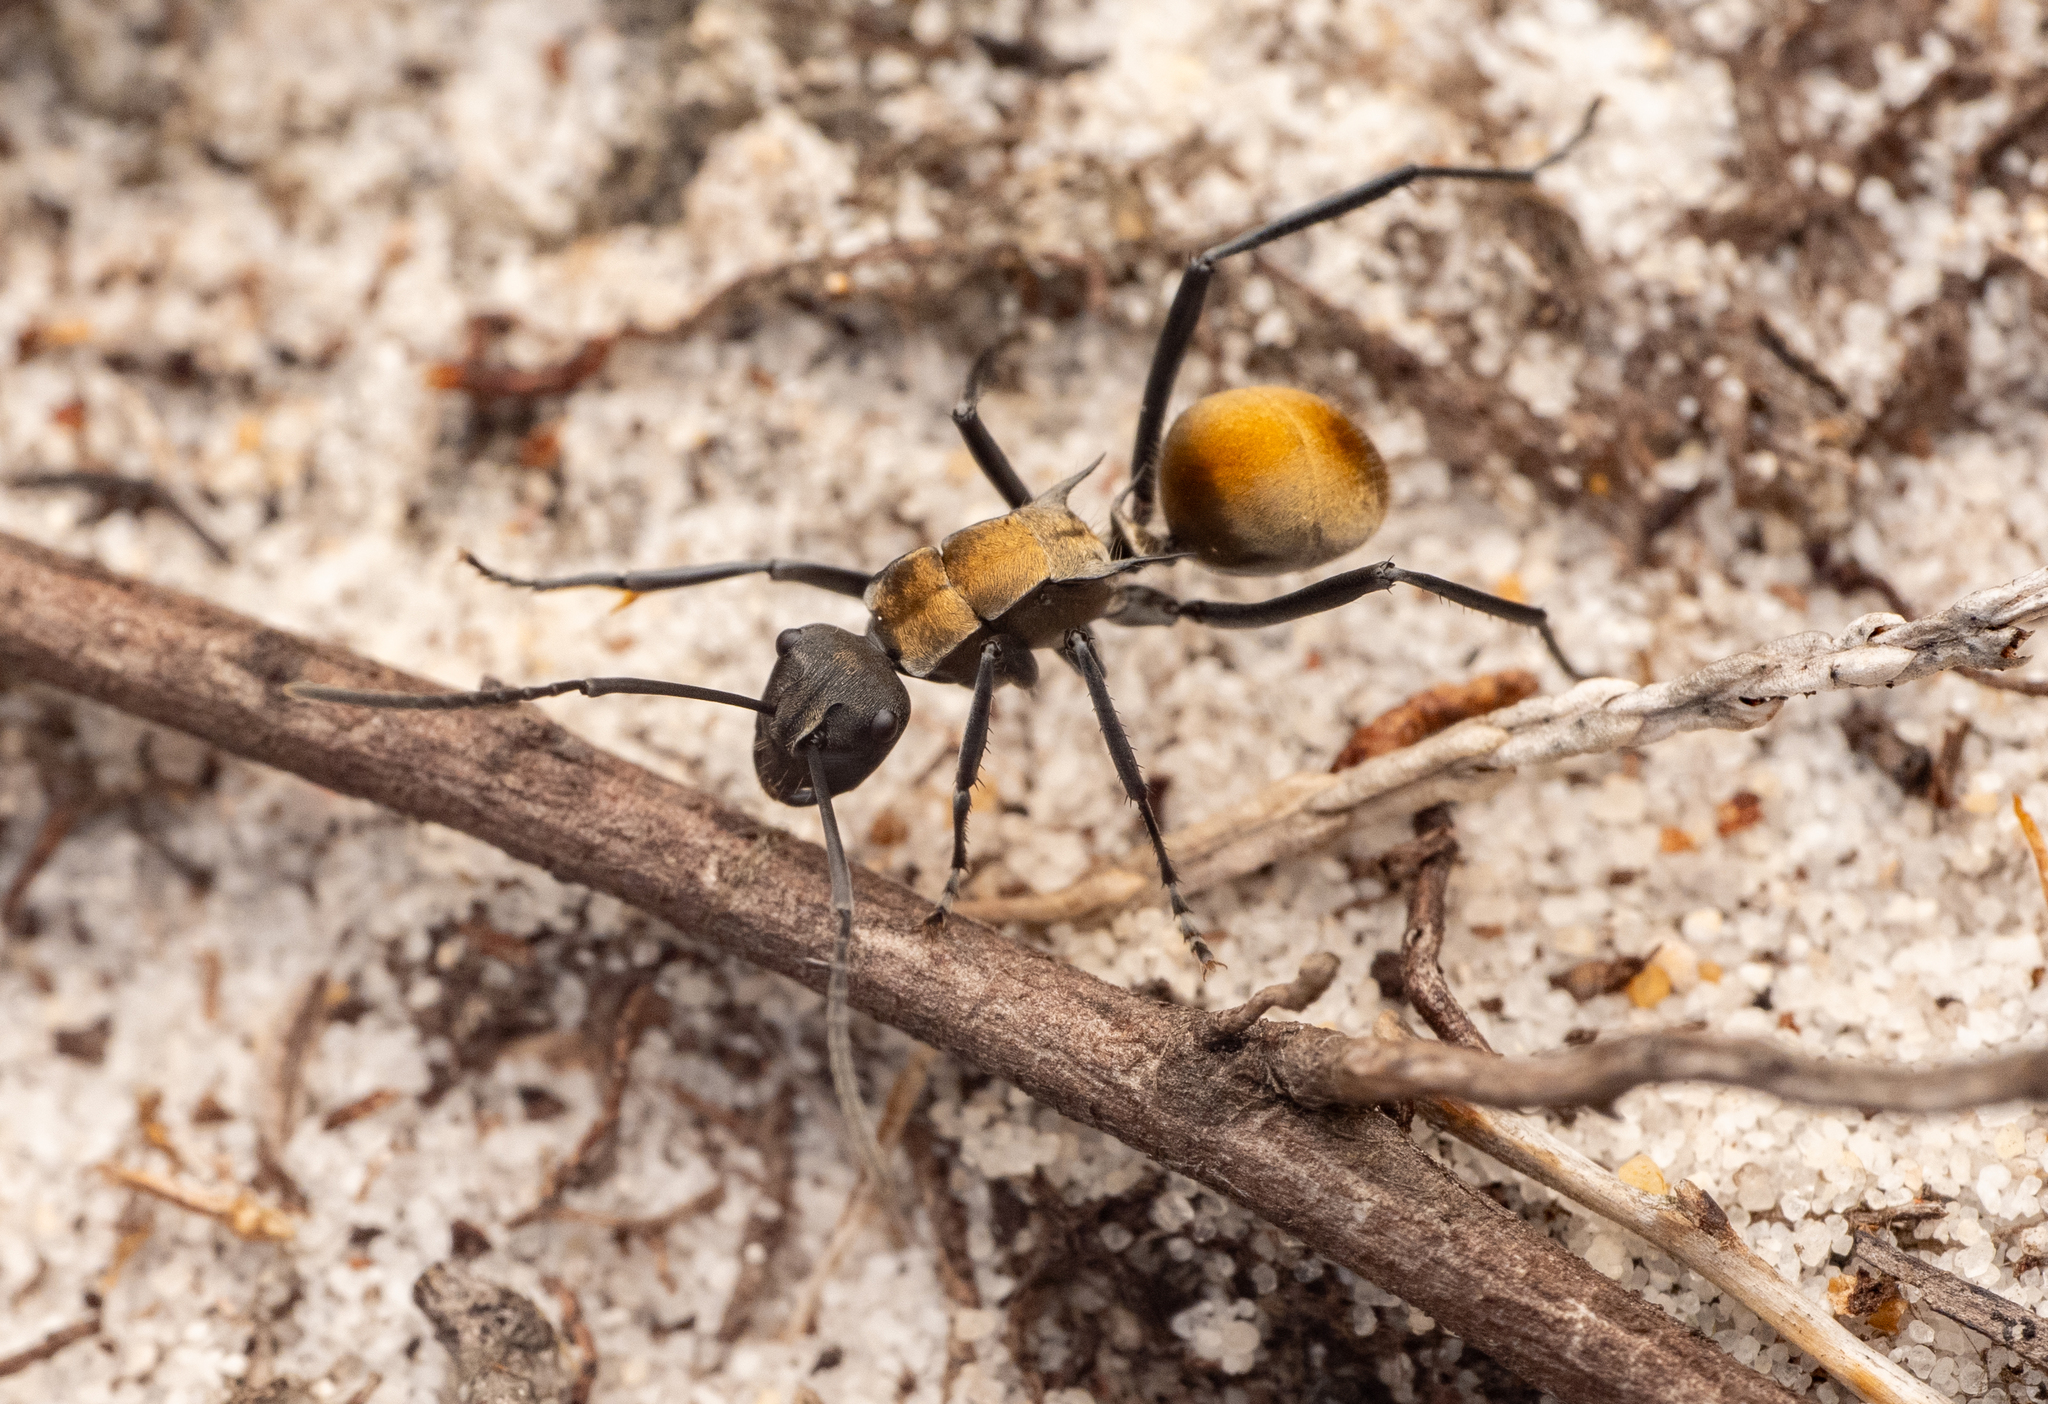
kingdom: Animalia
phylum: Arthropoda
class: Insecta
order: Hymenoptera
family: Formicidae
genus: Polyrhachis
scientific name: Polyrhachis ammon
